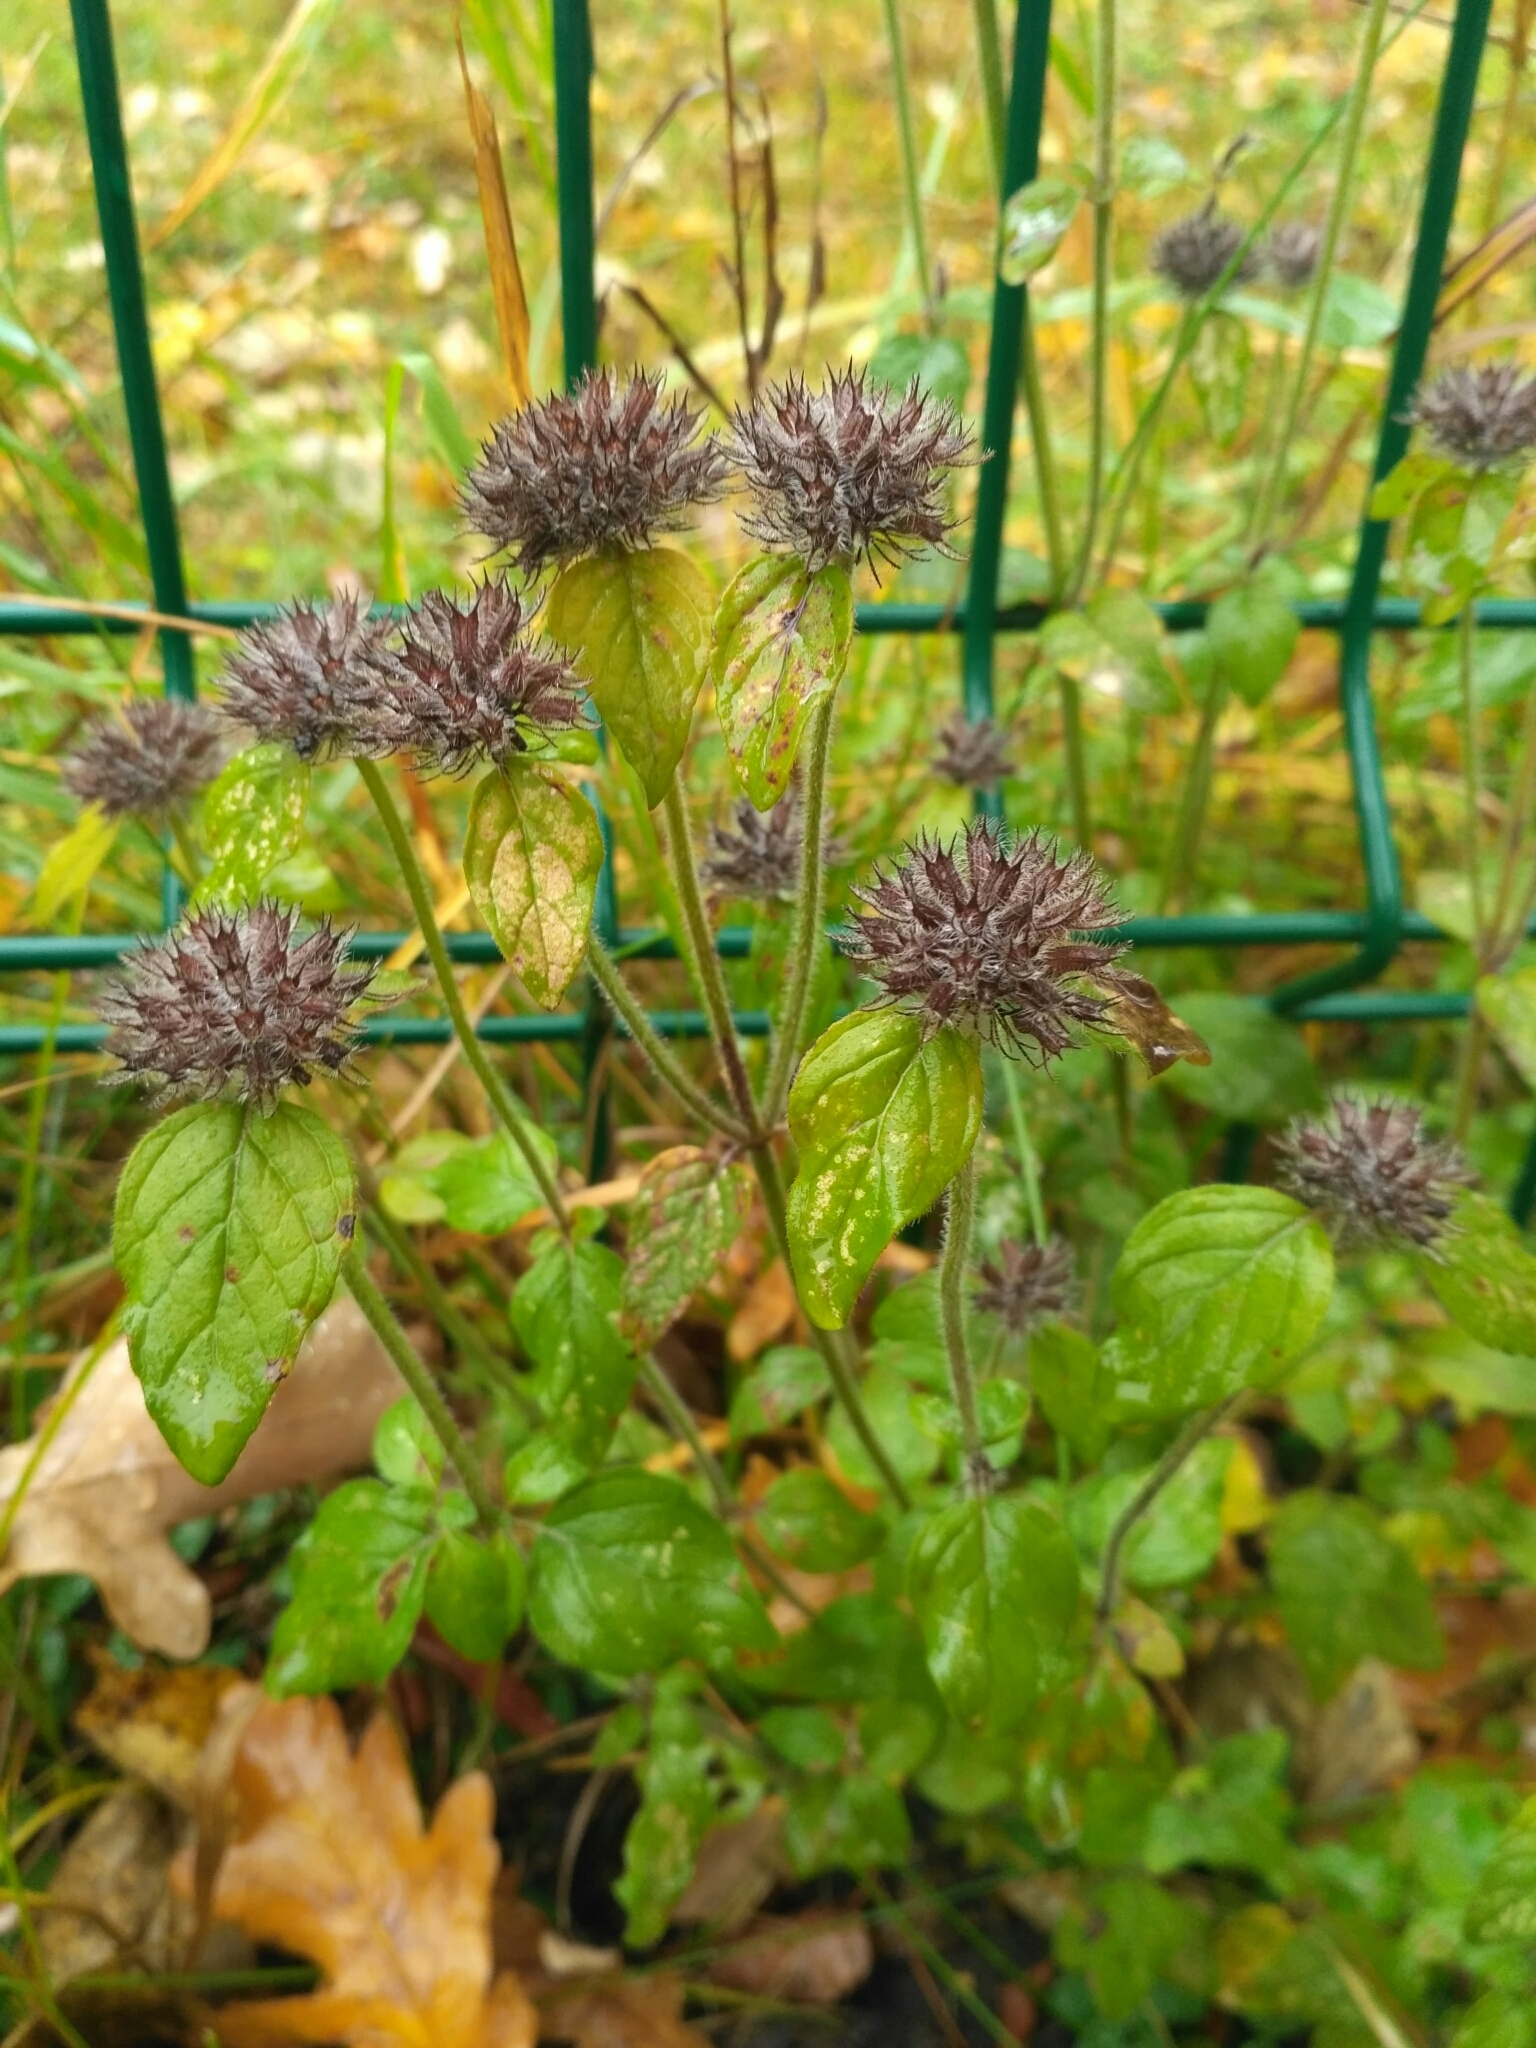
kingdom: Plantae
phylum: Tracheophyta
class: Magnoliopsida
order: Lamiales
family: Lamiaceae
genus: Clinopodium
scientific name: Clinopodium vulgare
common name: Wild basil
